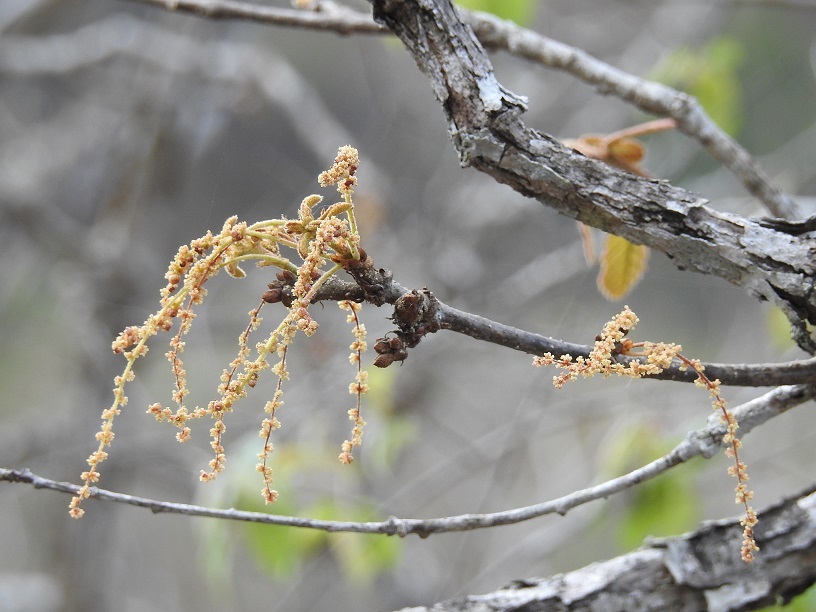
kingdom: Plantae
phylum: Tracheophyta
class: Magnoliopsida
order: Fagales
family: Fagaceae
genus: Quercus
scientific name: Quercus purulhana
